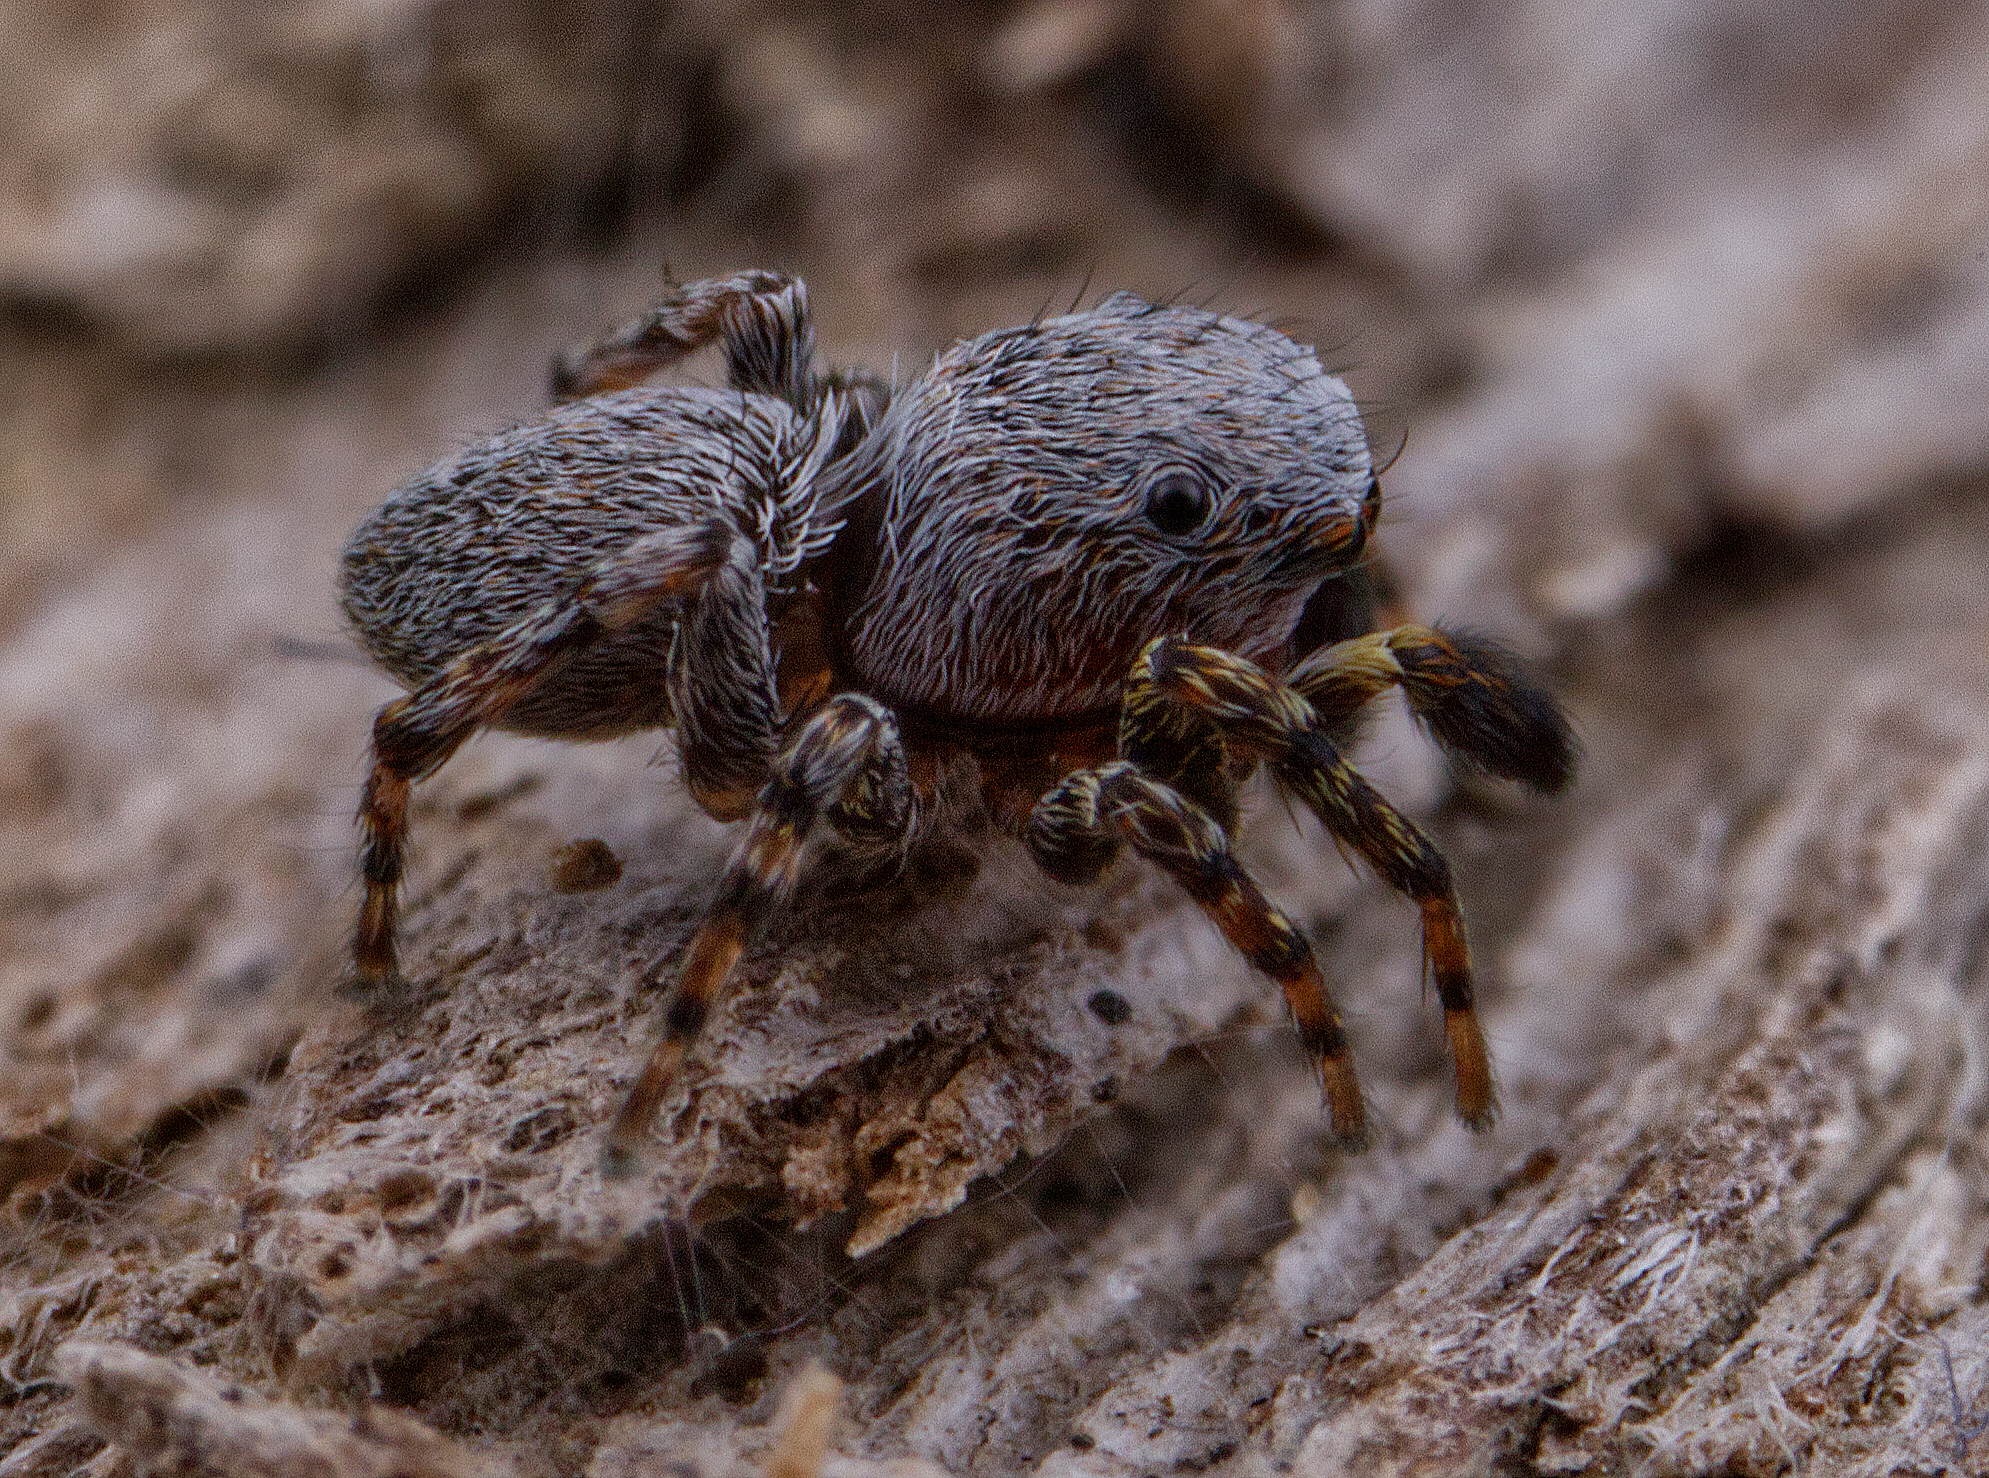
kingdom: Animalia
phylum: Arthropoda
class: Arachnida
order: Araneae
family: Salticidae
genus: Attinella
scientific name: Attinella concolor
